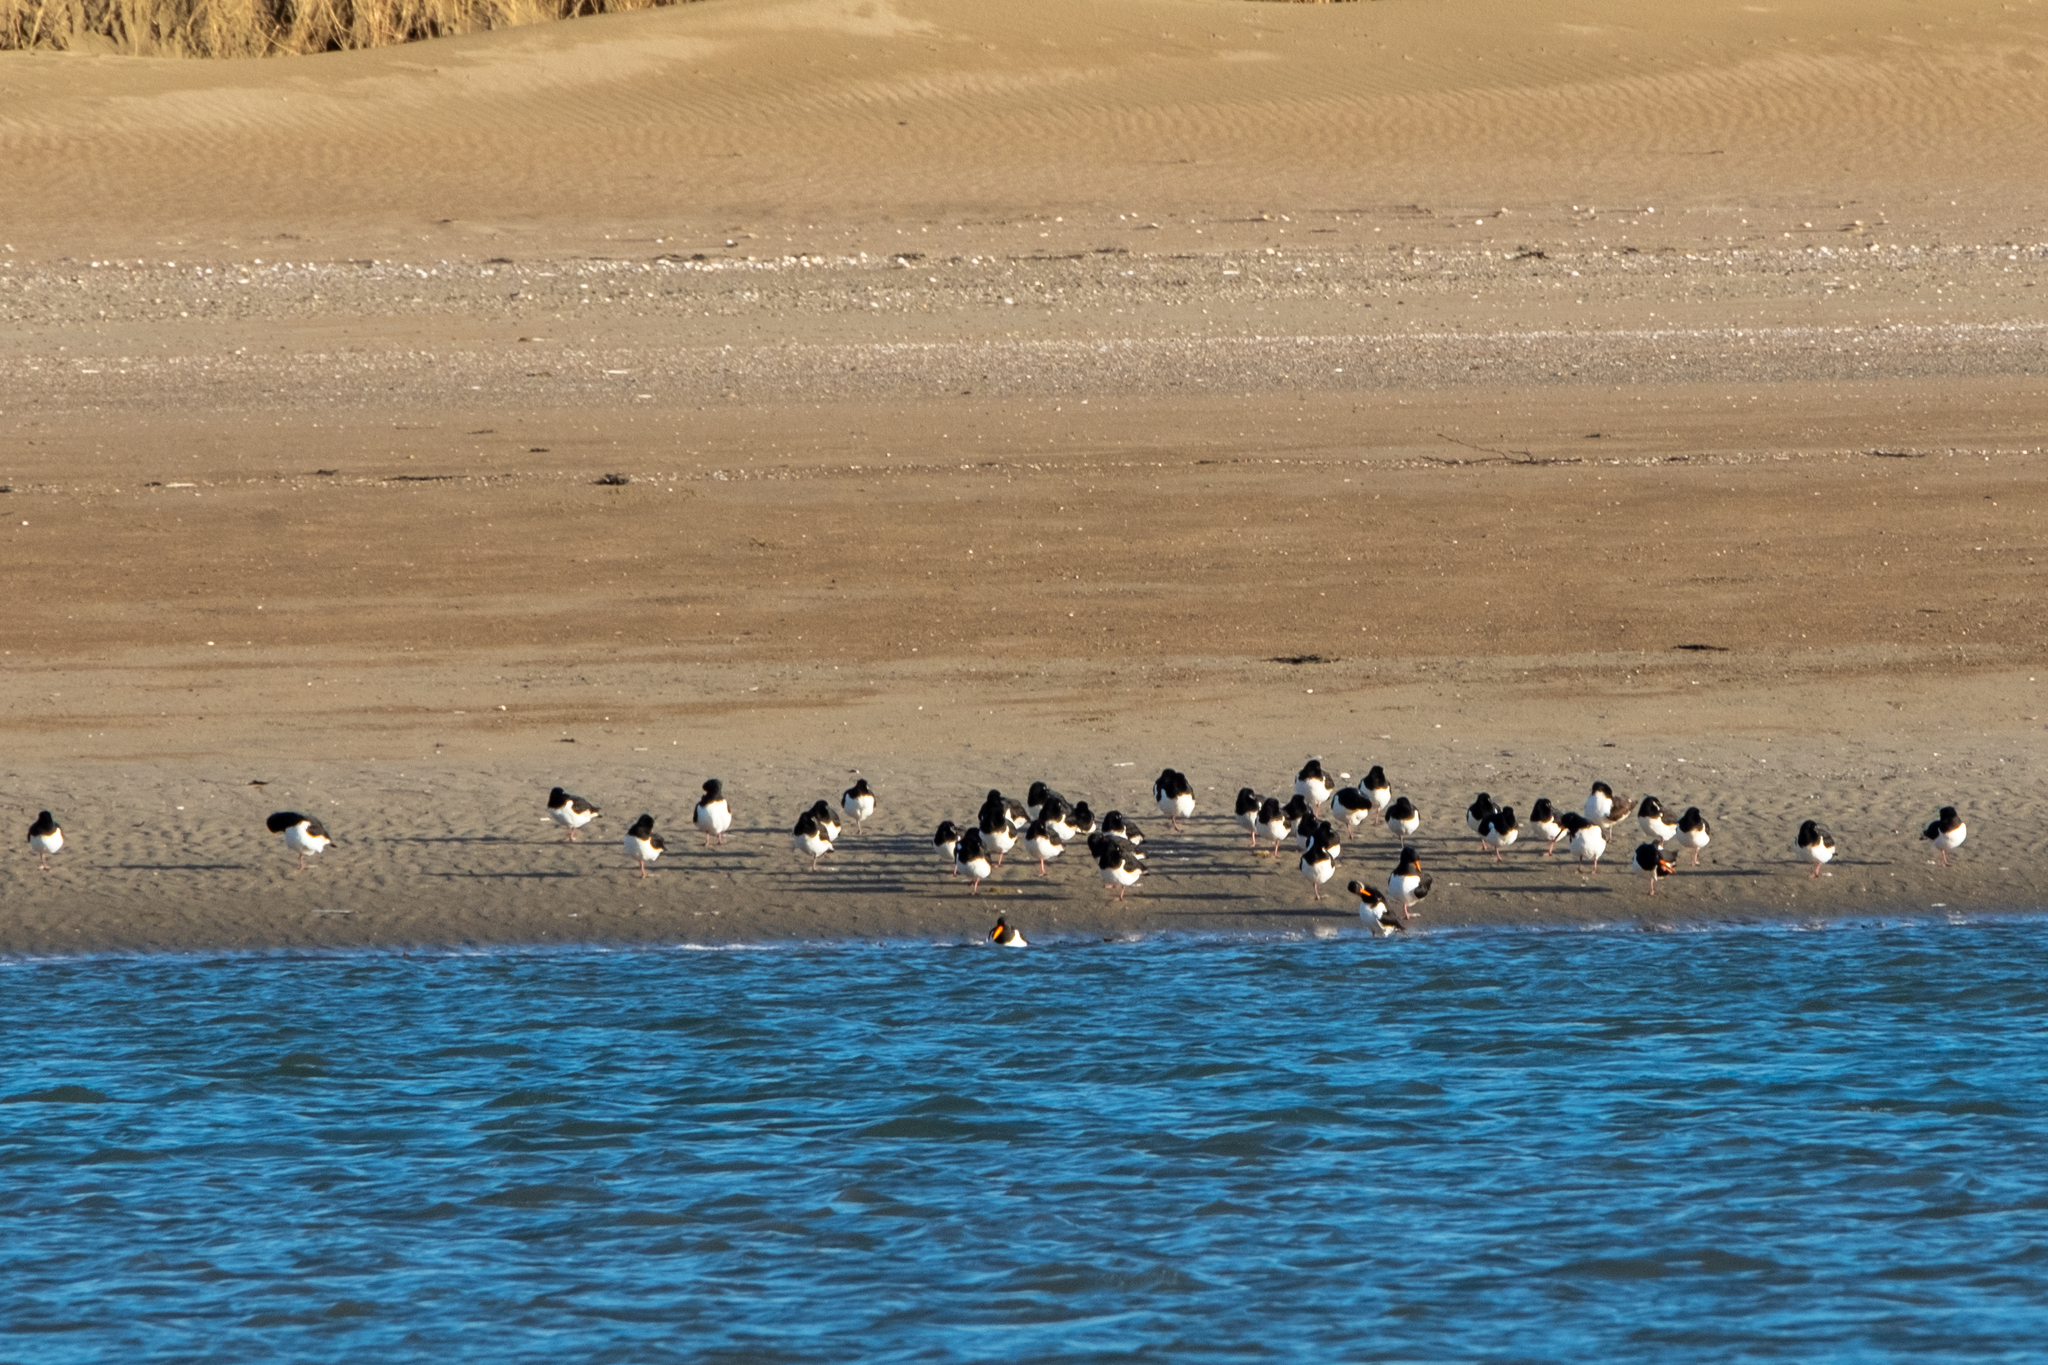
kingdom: Animalia
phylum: Chordata
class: Aves
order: Charadriiformes
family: Haematopodidae
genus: Haematopus
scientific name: Haematopus ostralegus
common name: Eurasian oystercatcher
